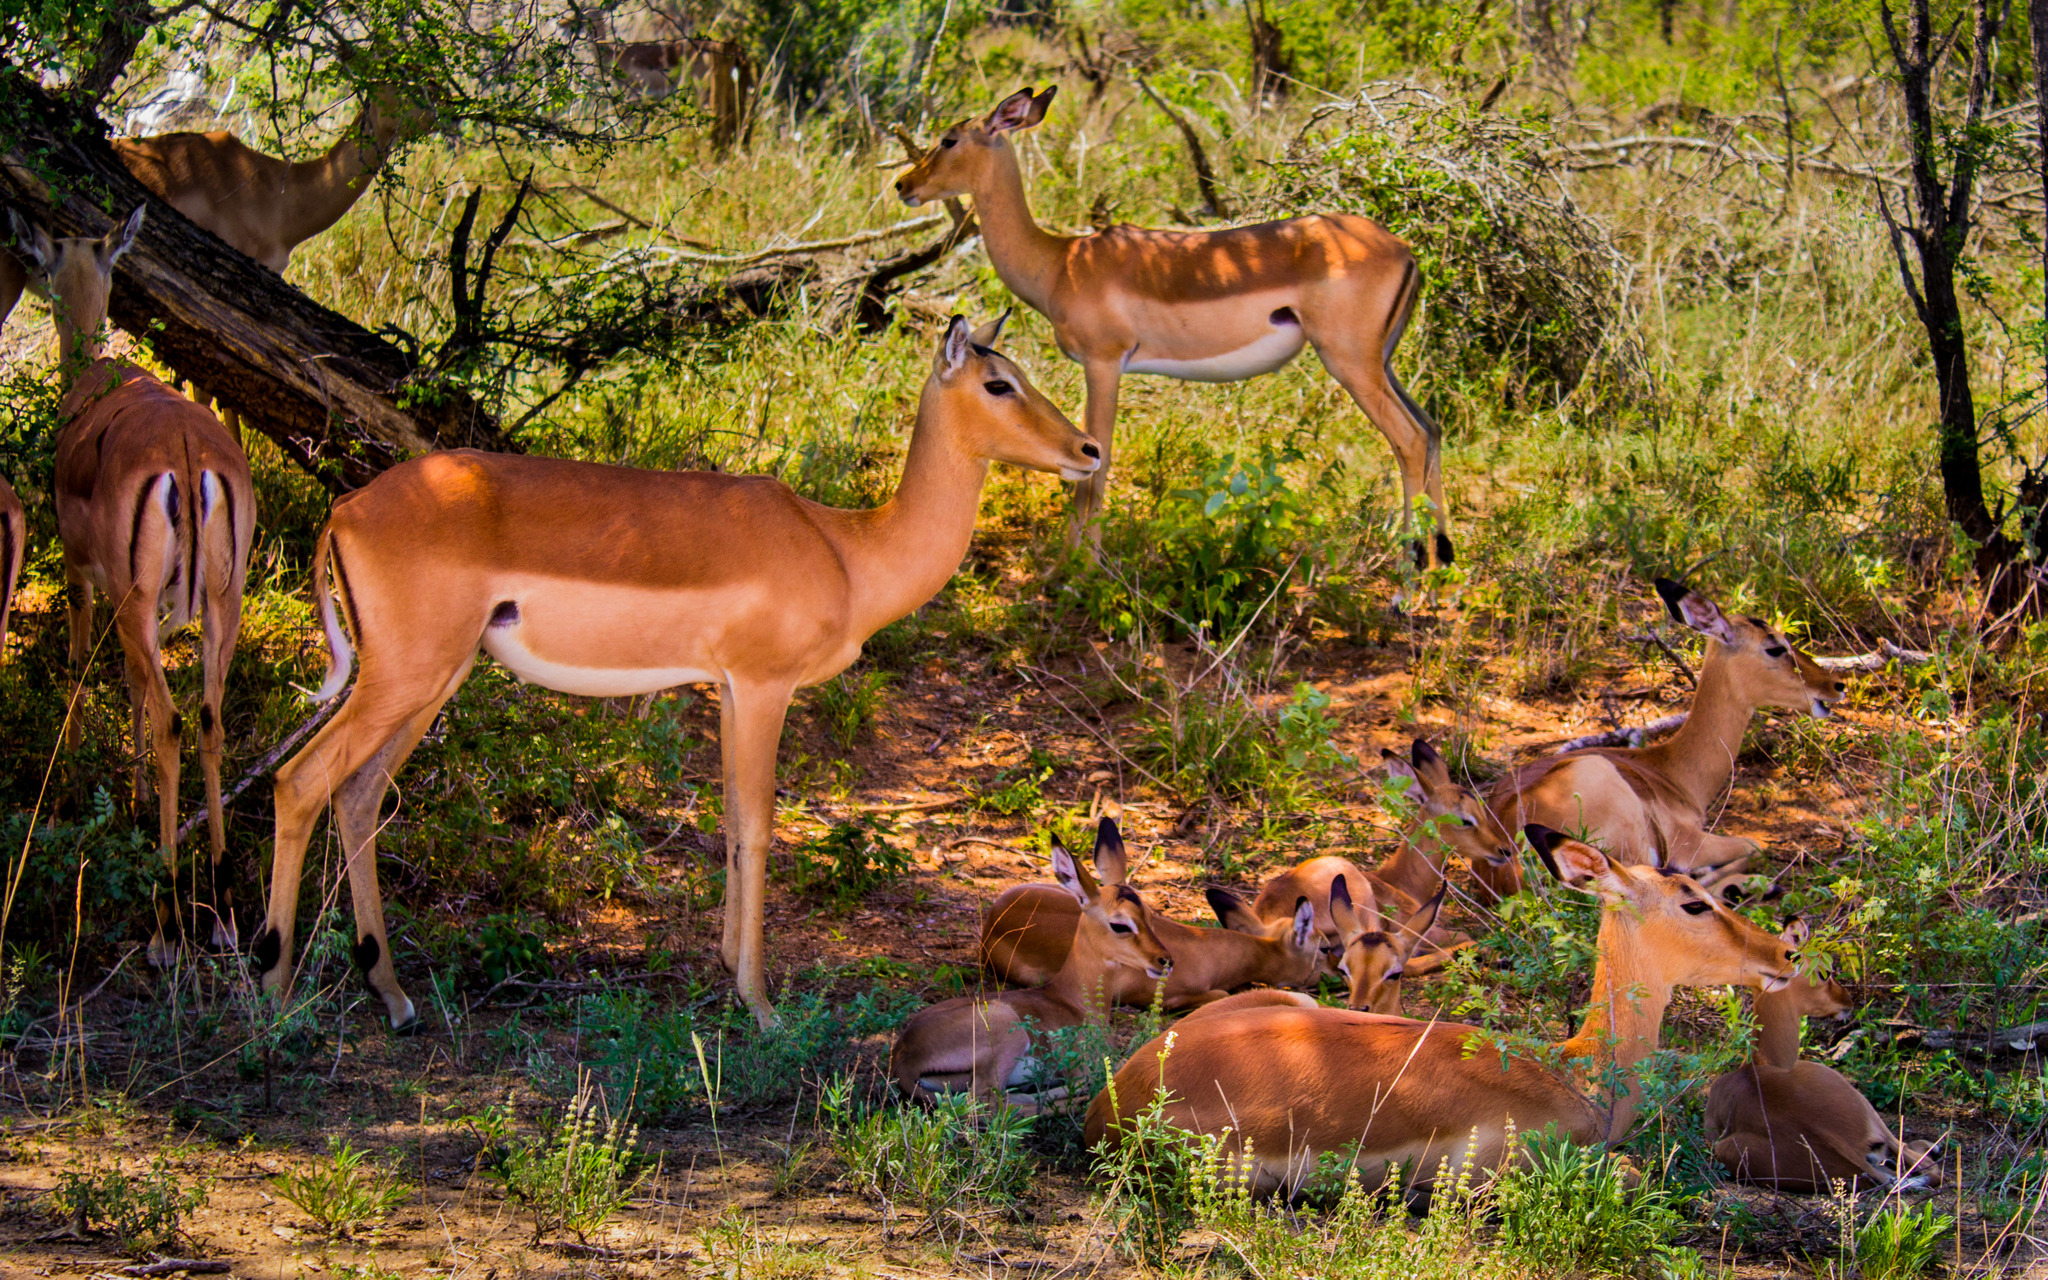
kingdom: Animalia
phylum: Chordata
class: Mammalia
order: Artiodactyla
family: Bovidae
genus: Aepyceros
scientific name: Aepyceros melampus
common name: Impala
